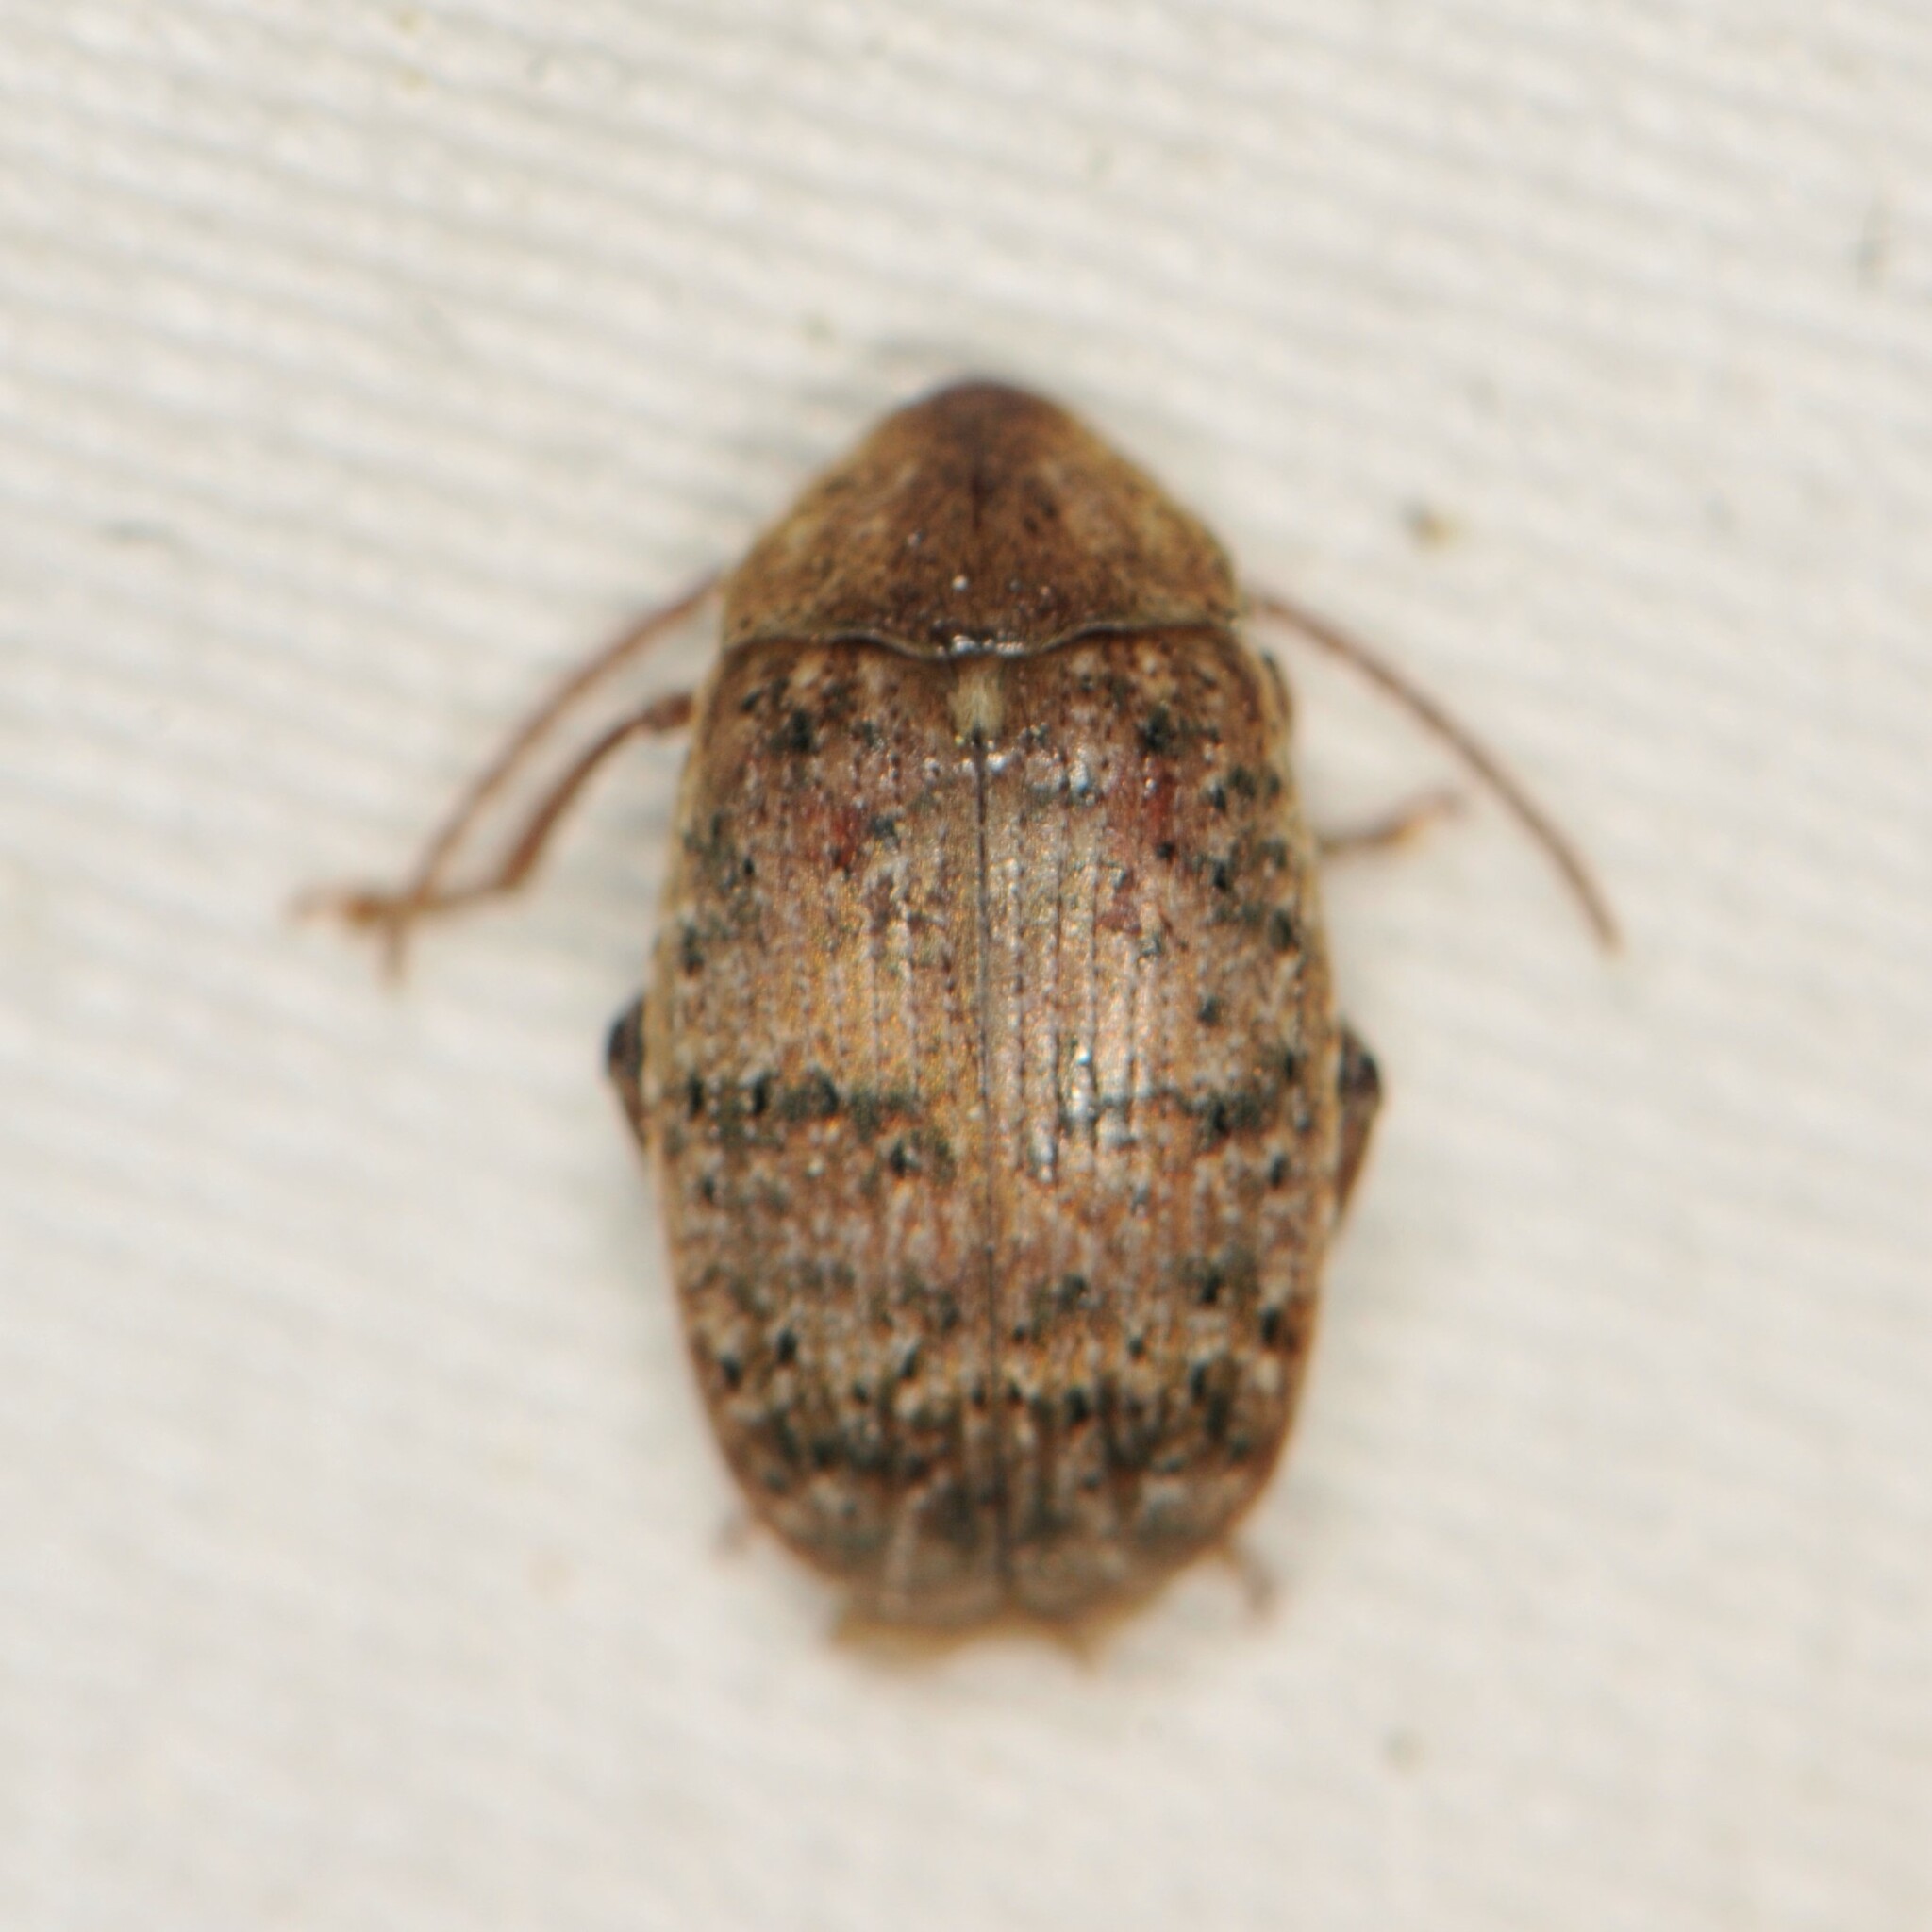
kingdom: Animalia
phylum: Arthropoda
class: Insecta
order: Coleoptera
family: Chrysomelidae
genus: Amblycerus
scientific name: Amblycerus robiniae
